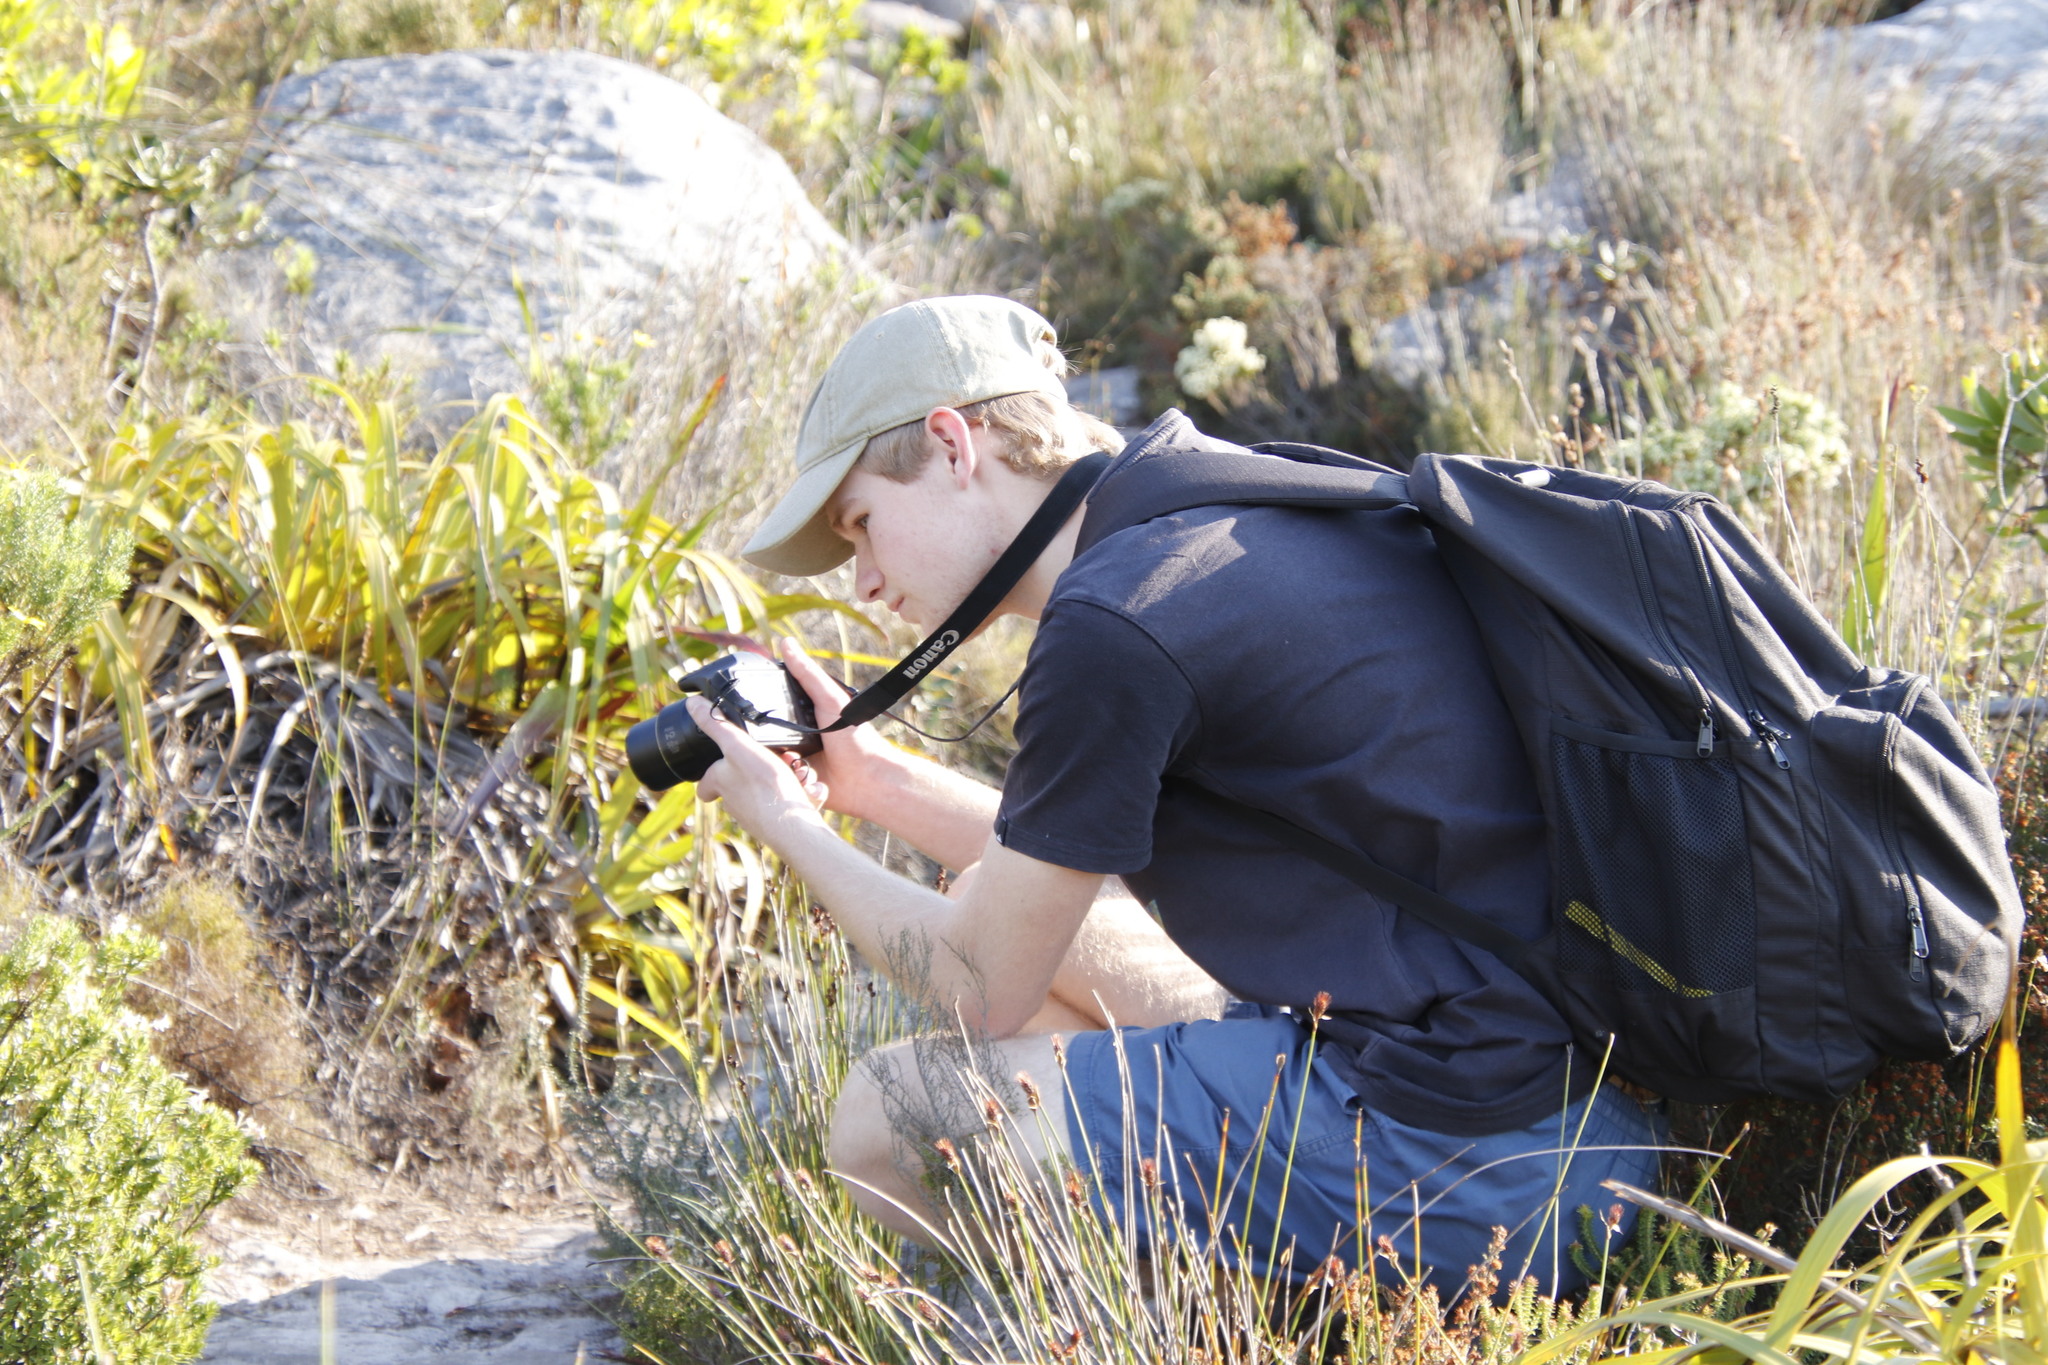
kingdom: Plantae
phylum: Tracheophyta
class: Liliopsida
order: Poales
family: Cyperaceae
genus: Tetraria
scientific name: Tetraria thermalis
